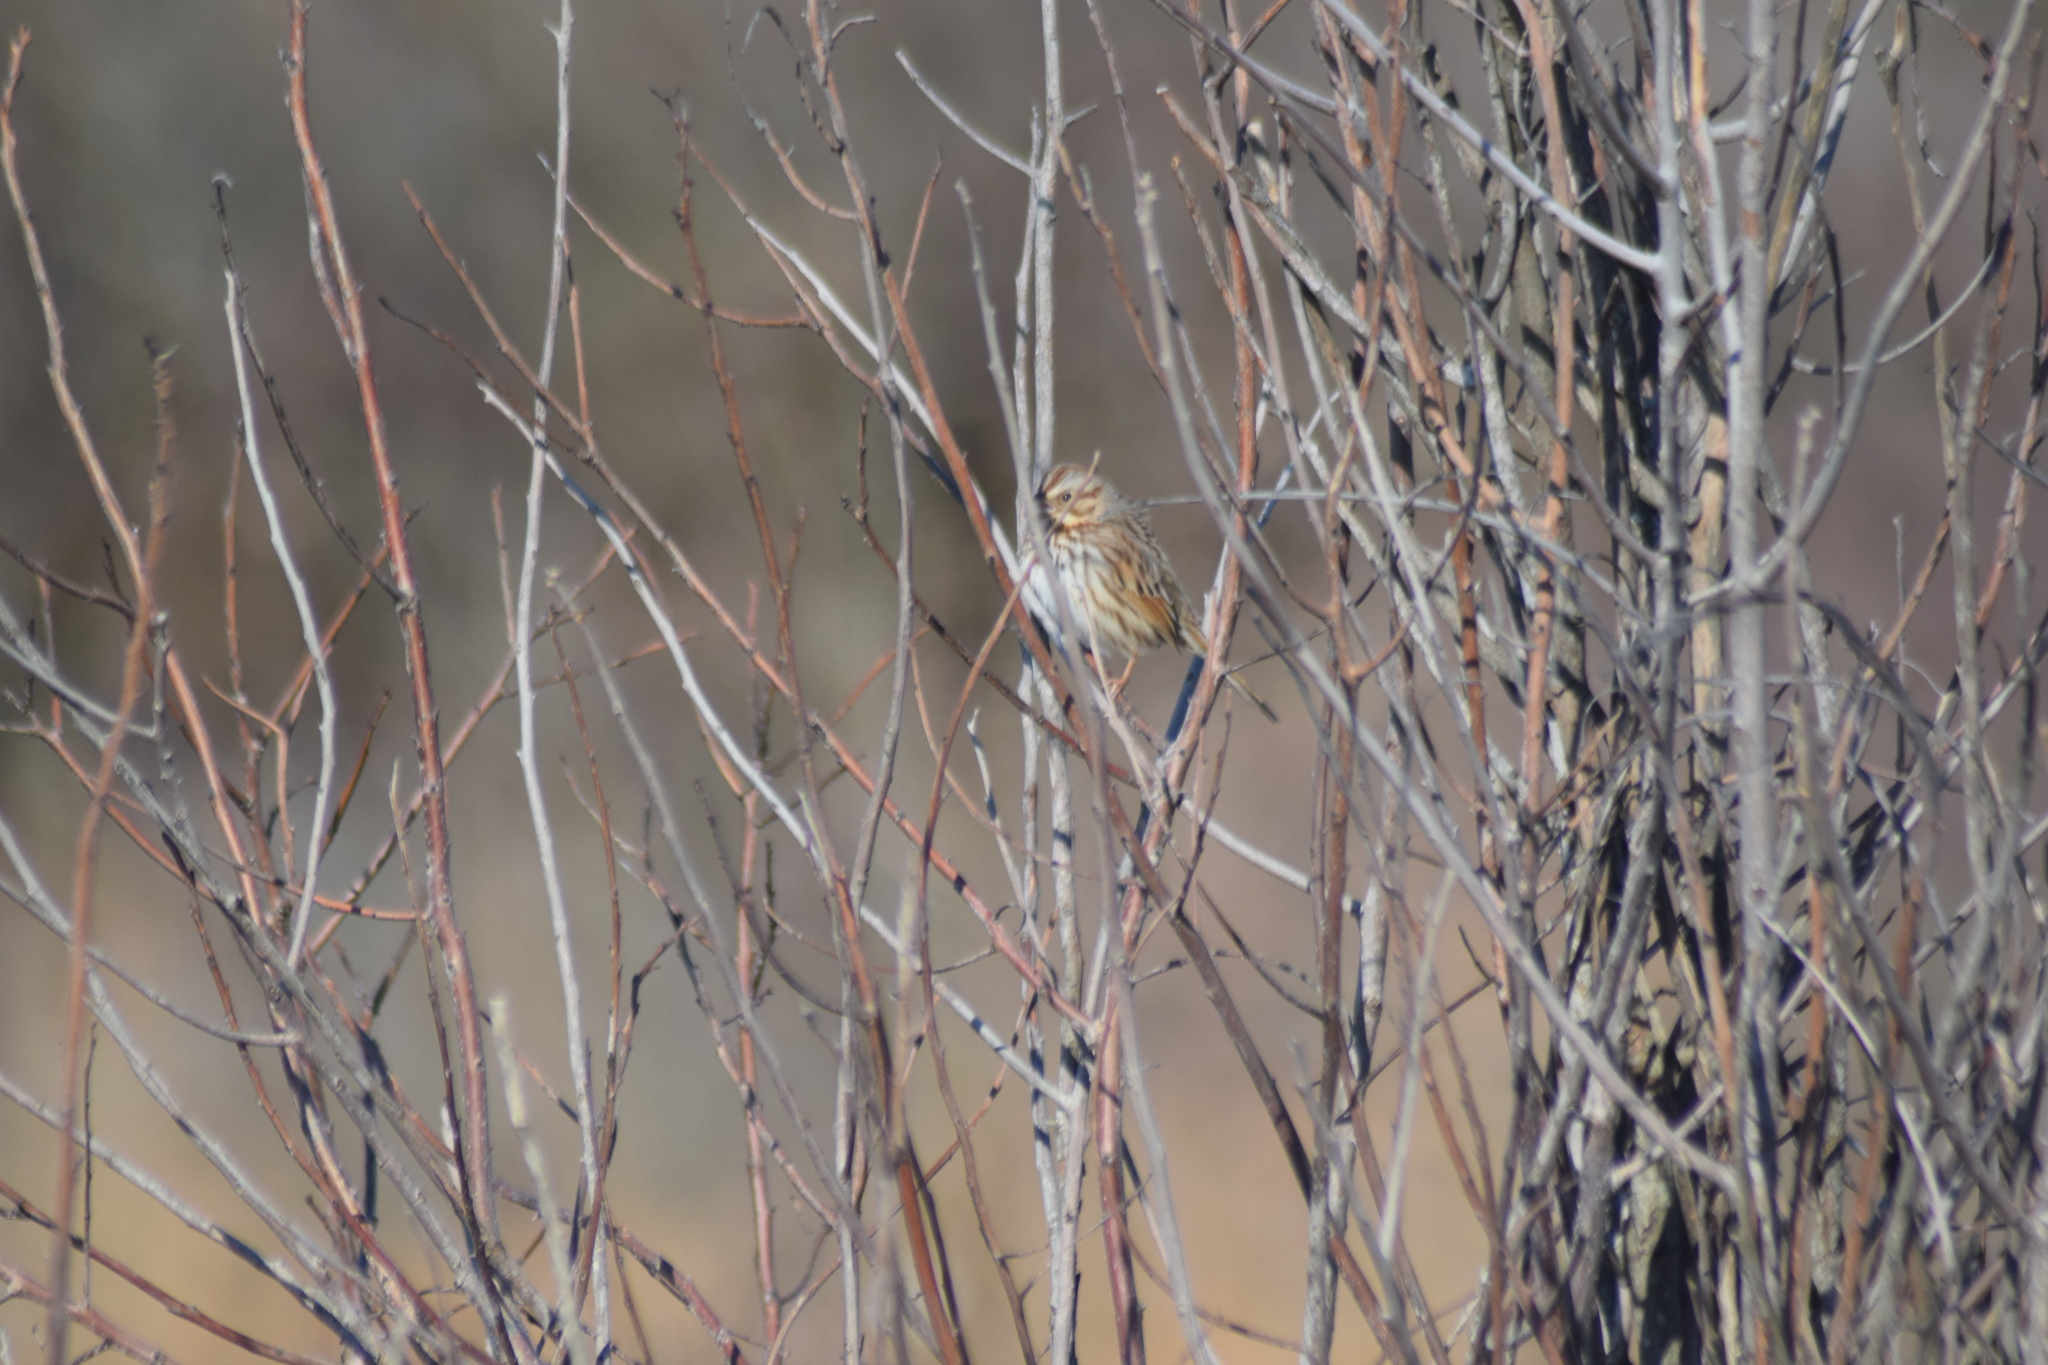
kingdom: Animalia
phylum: Chordata
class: Aves
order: Passeriformes
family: Passerellidae
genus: Melospiza
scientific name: Melospiza melodia
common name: Song sparrow
